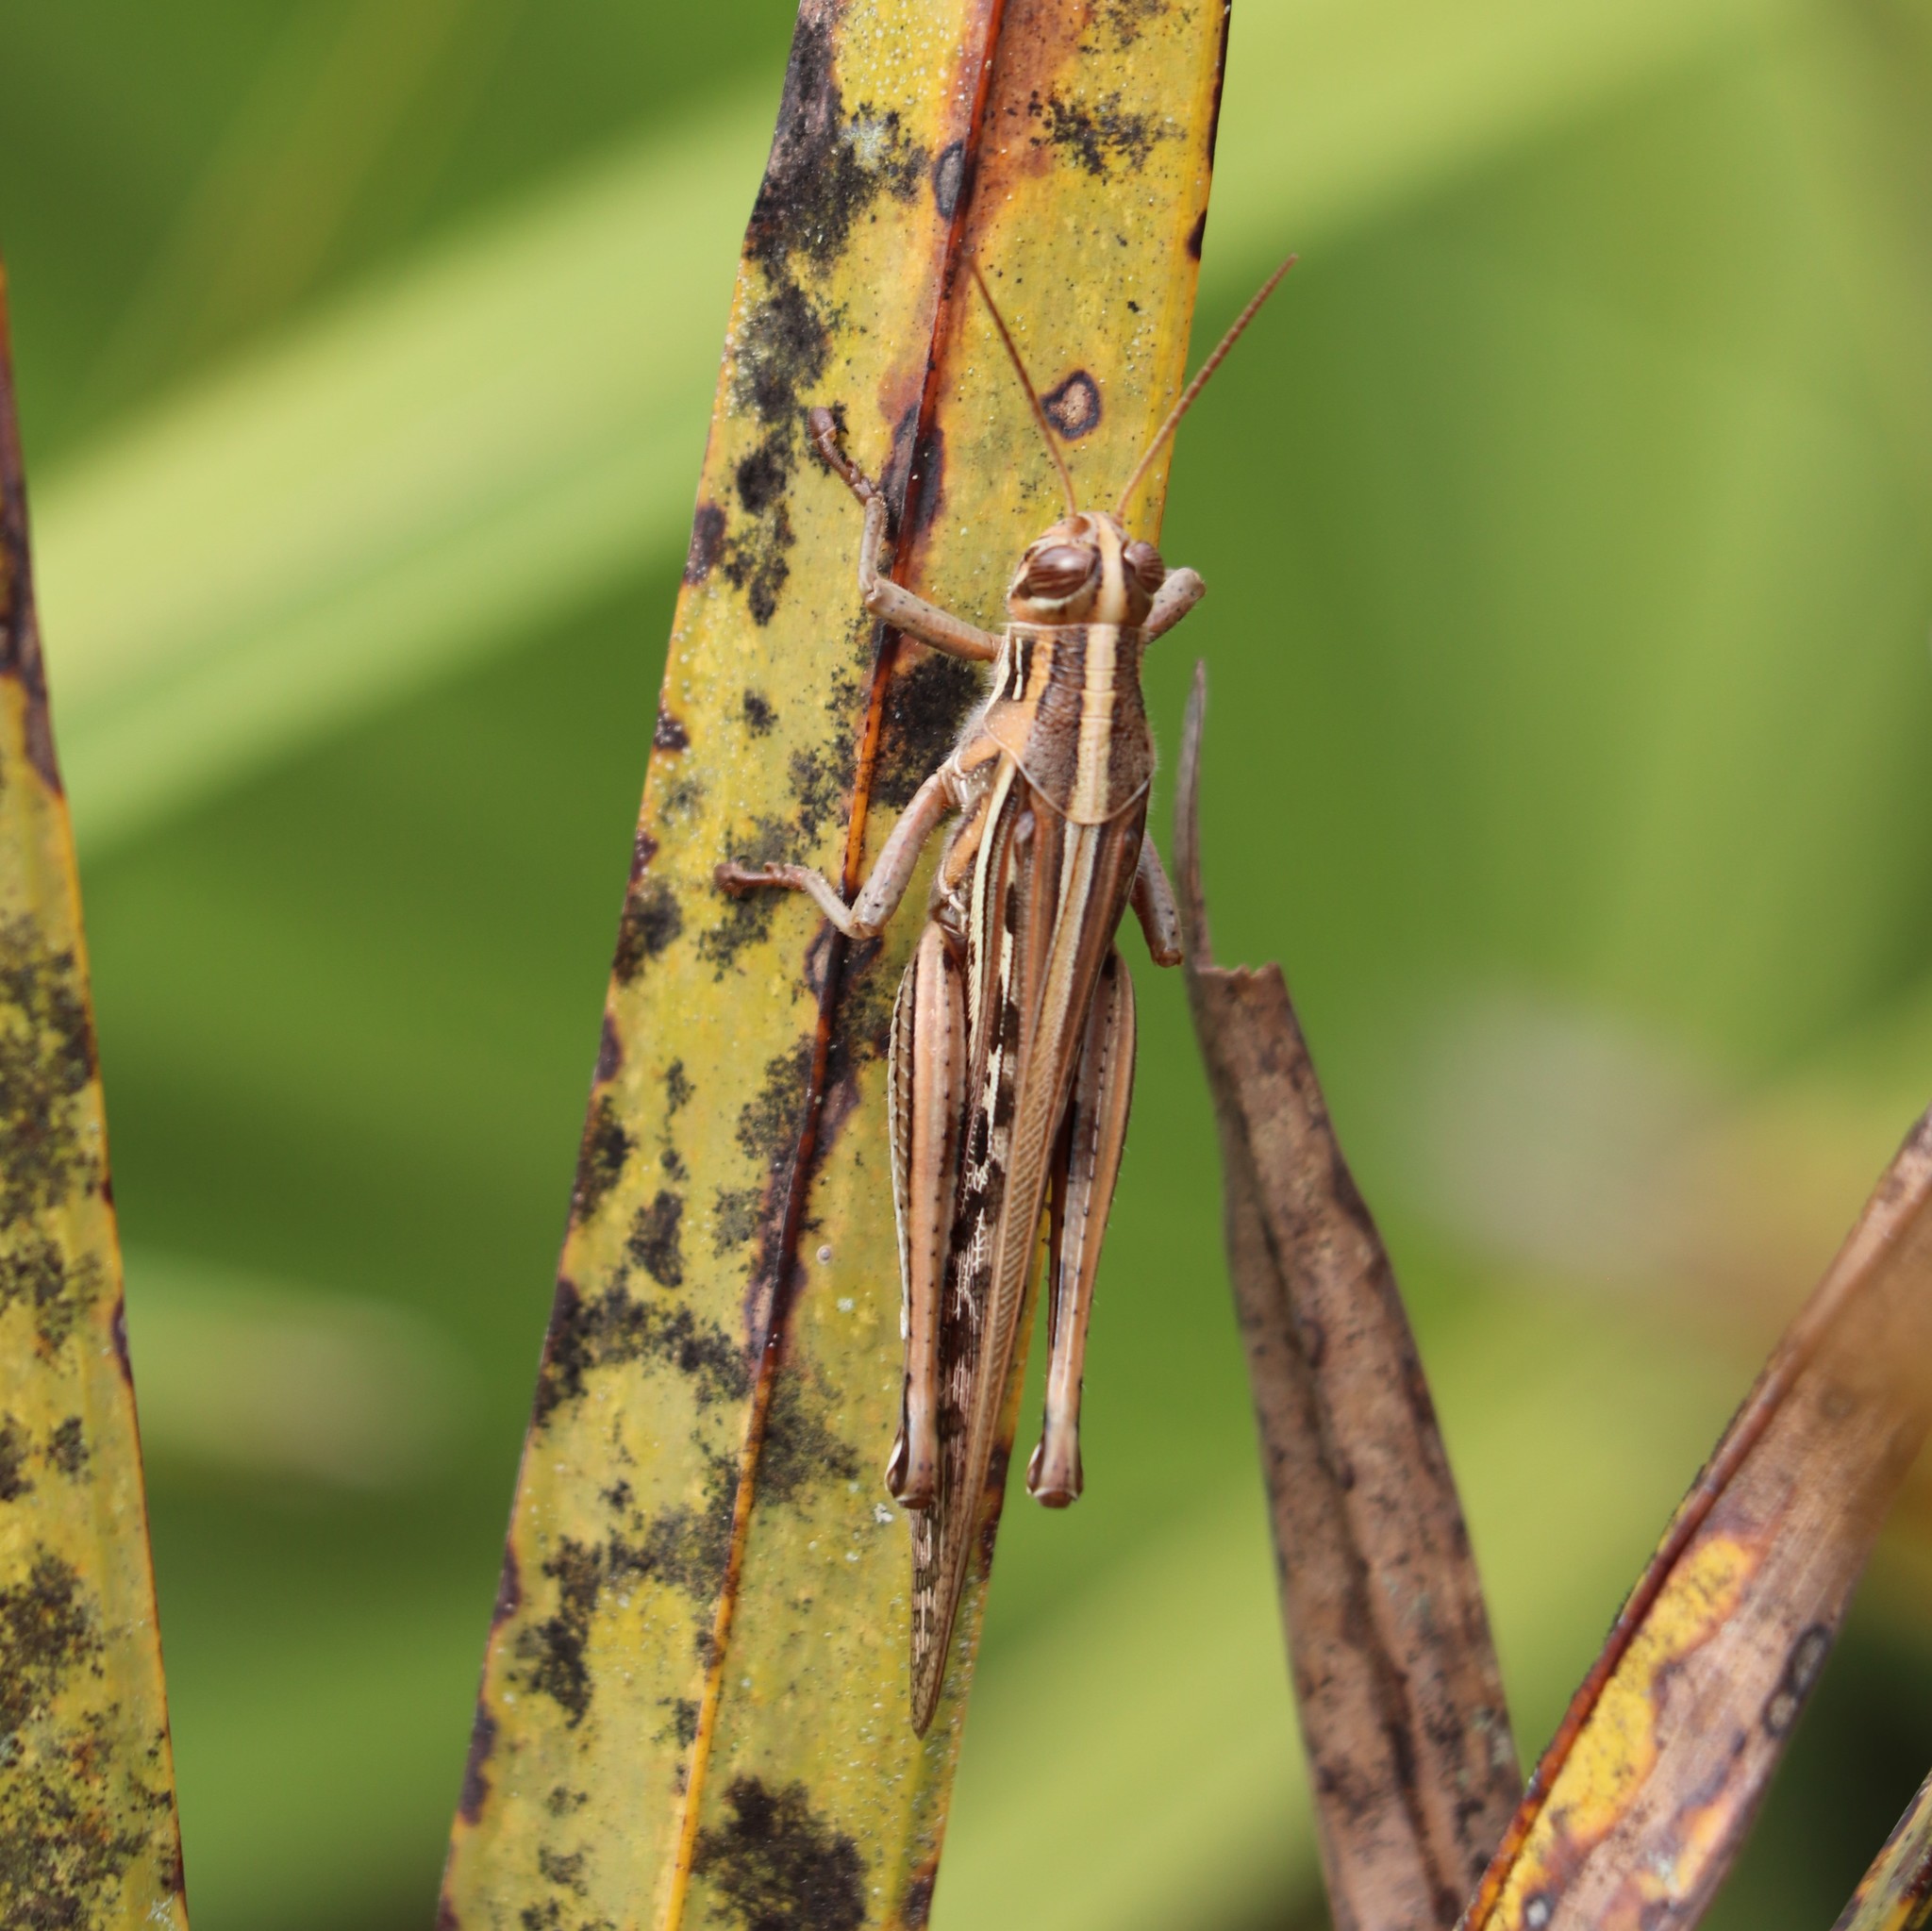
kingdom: Animalia
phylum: Arthropoda
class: Insecta
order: Orthoptera
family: Acrididae
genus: Schistocerca
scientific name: Schistocerca americana
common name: American bird locust
